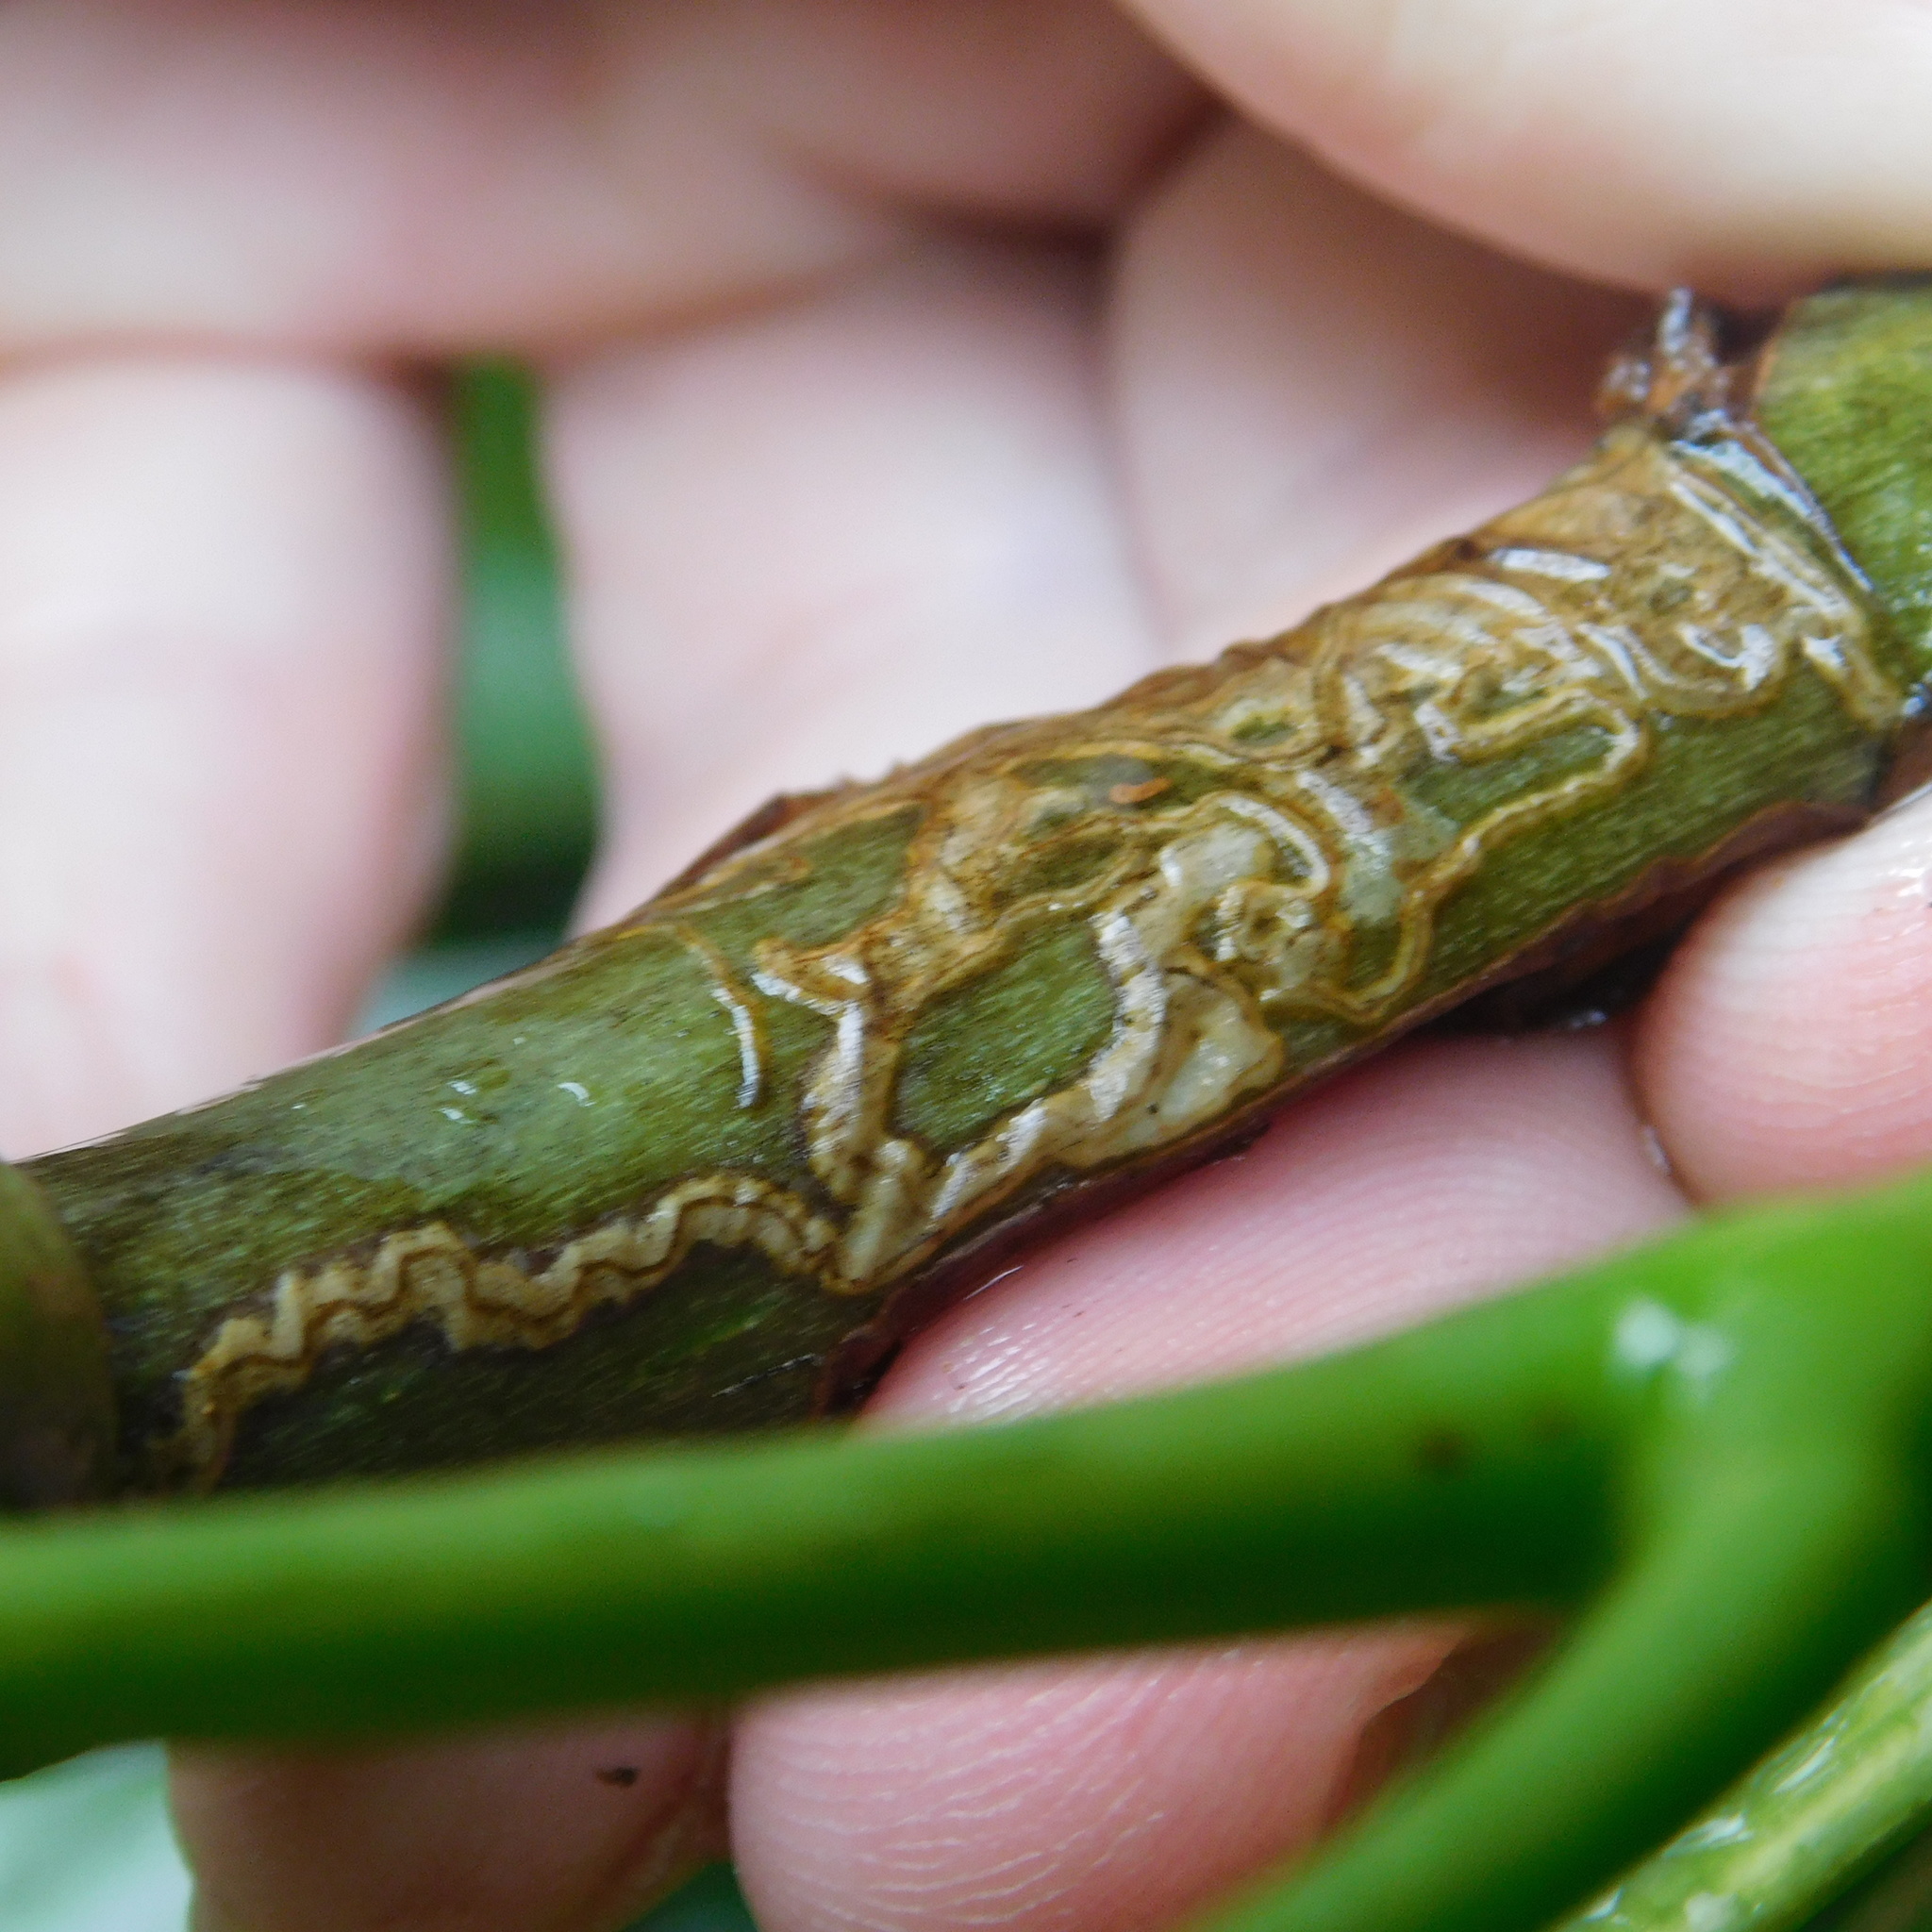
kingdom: Animalia
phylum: Arthropoda
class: Insecta
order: Lepidoptera
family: Gracillariidae
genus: Eumetriochroa
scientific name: Eumetriochroa panacicorticis
